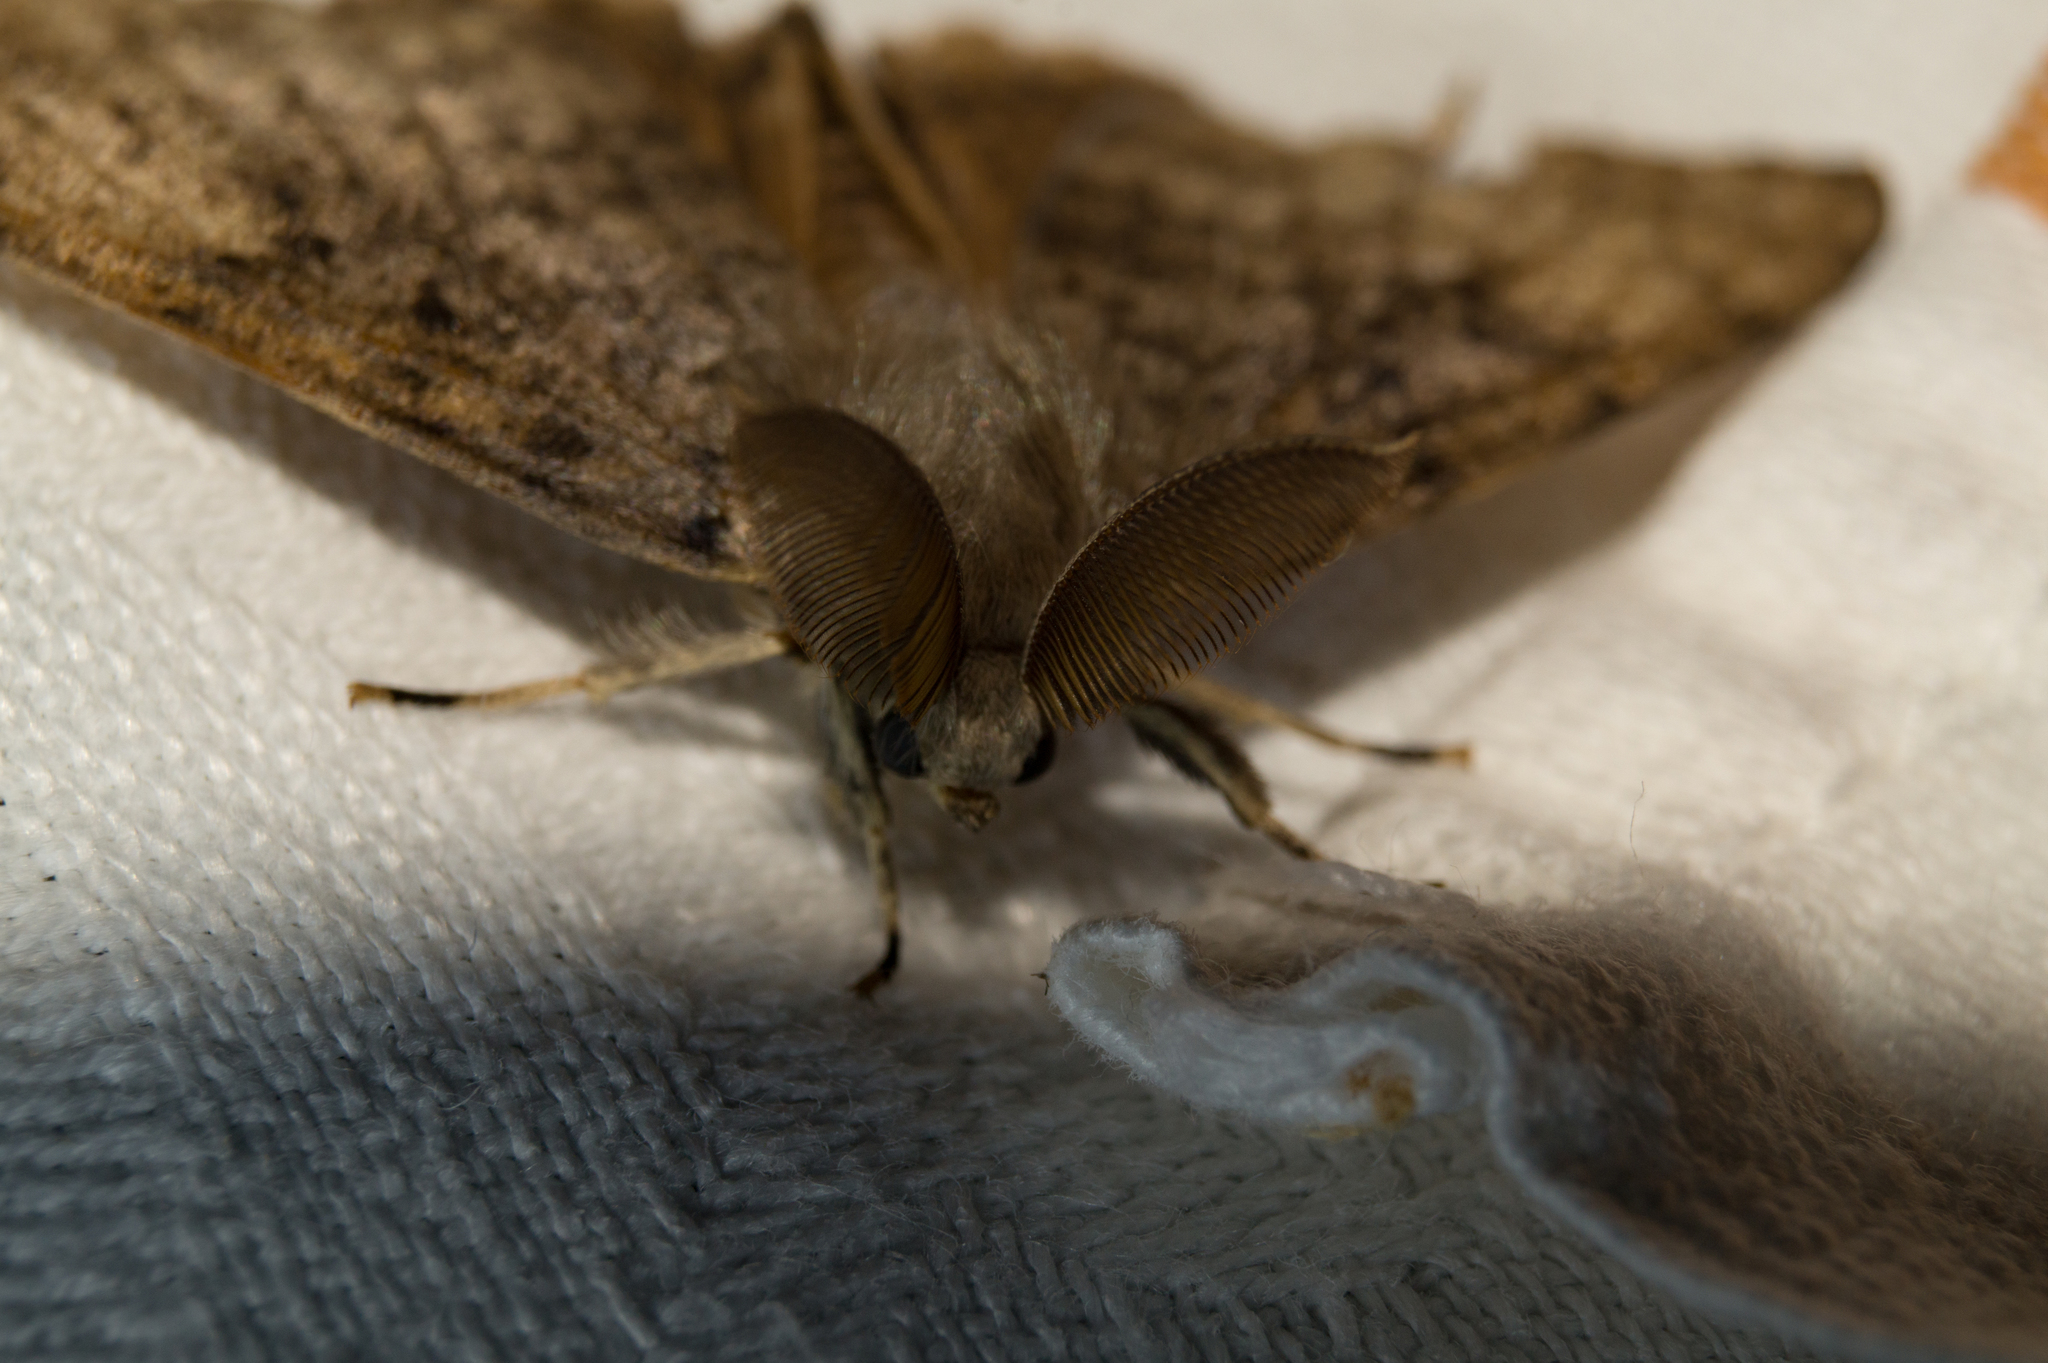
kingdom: Animalia
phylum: Arthropoda
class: Insecta
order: Lepidoptera
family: Erebidae
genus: Lymantria
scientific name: Lymantria dispar
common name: Gypsy moth
